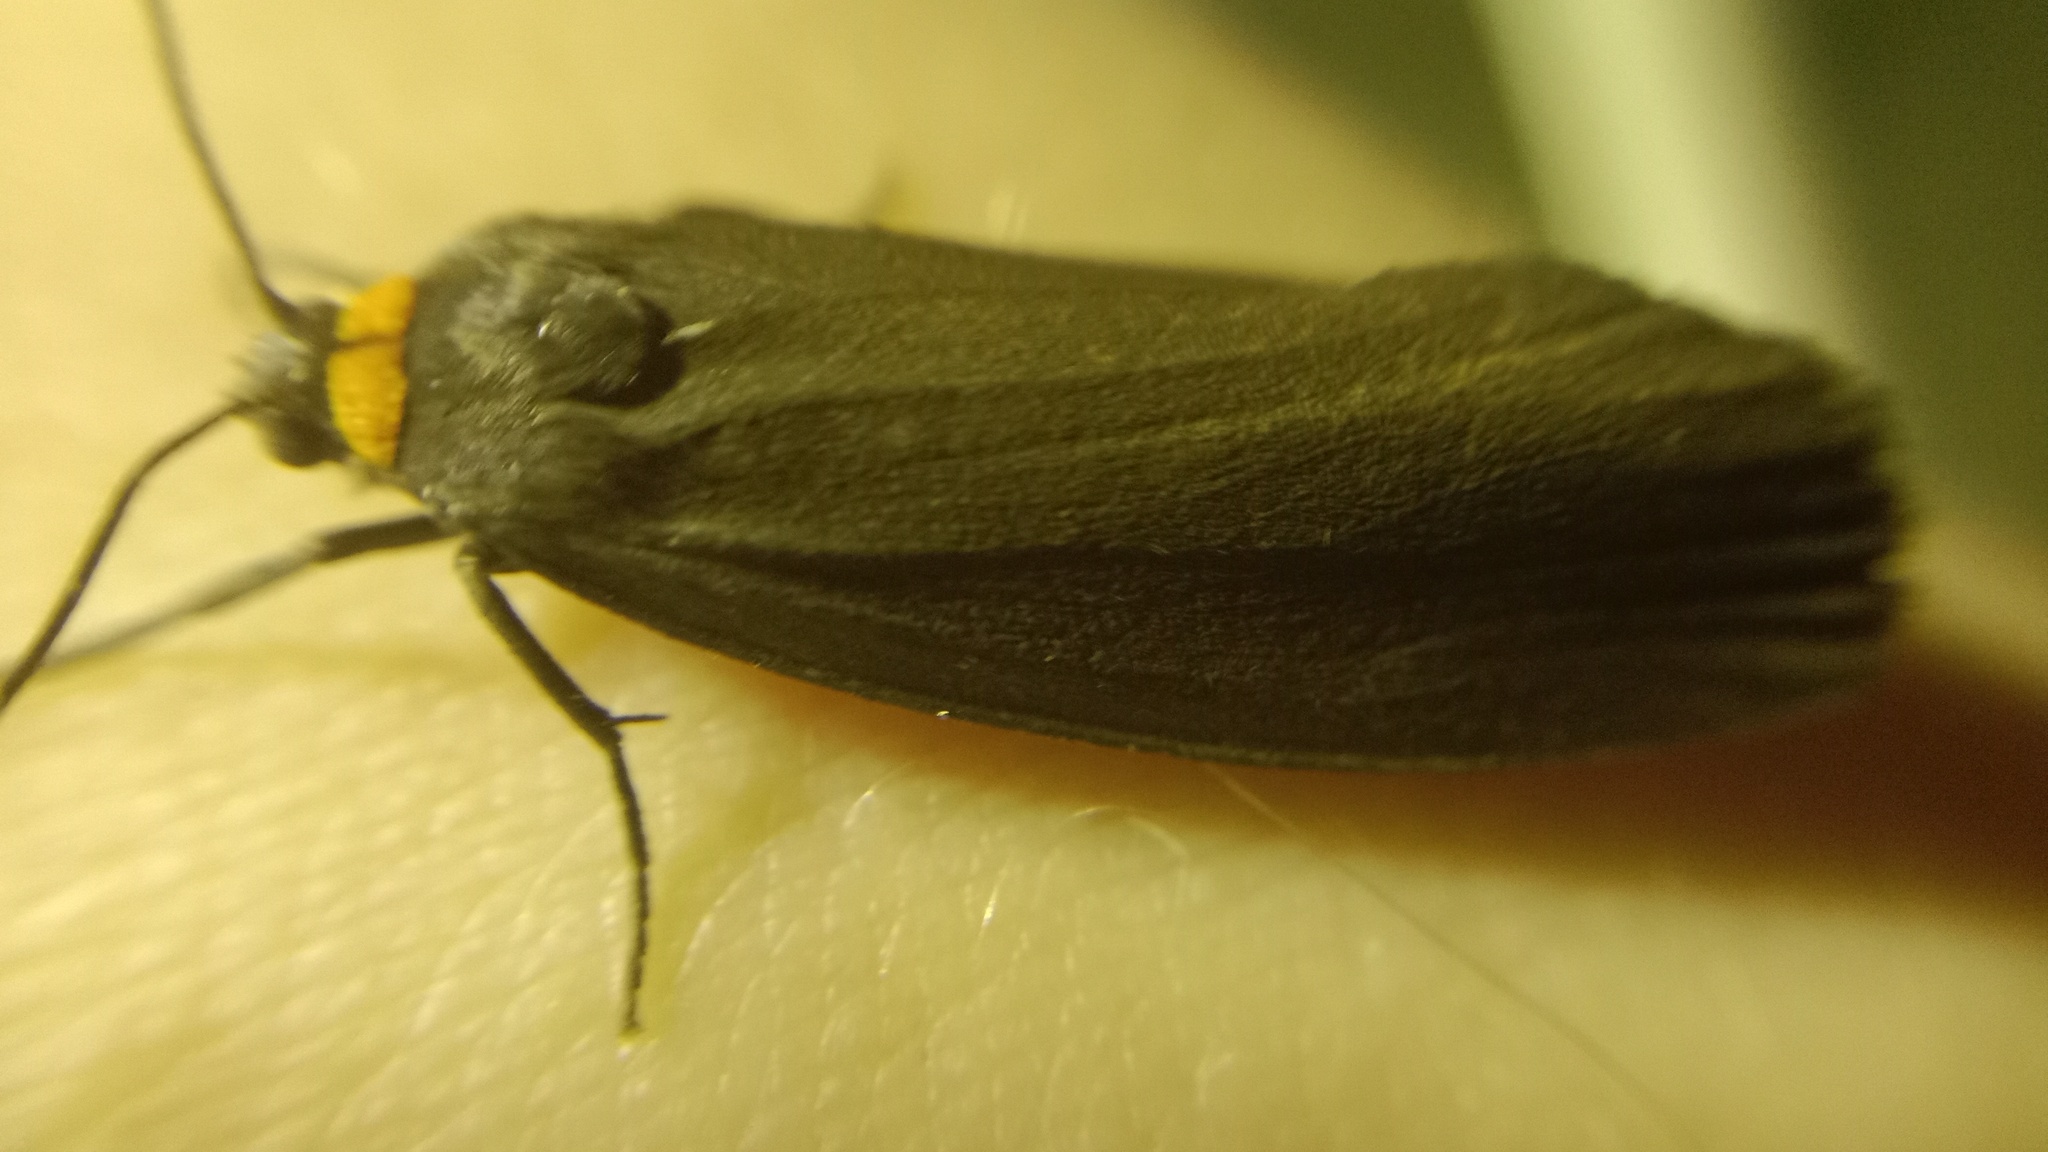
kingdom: Animalia
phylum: Arthropoda
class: Insecta
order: Lepidoptera
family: Erebidae
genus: Atolmis
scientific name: Atolmis rubricollis
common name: Red-necked footman
